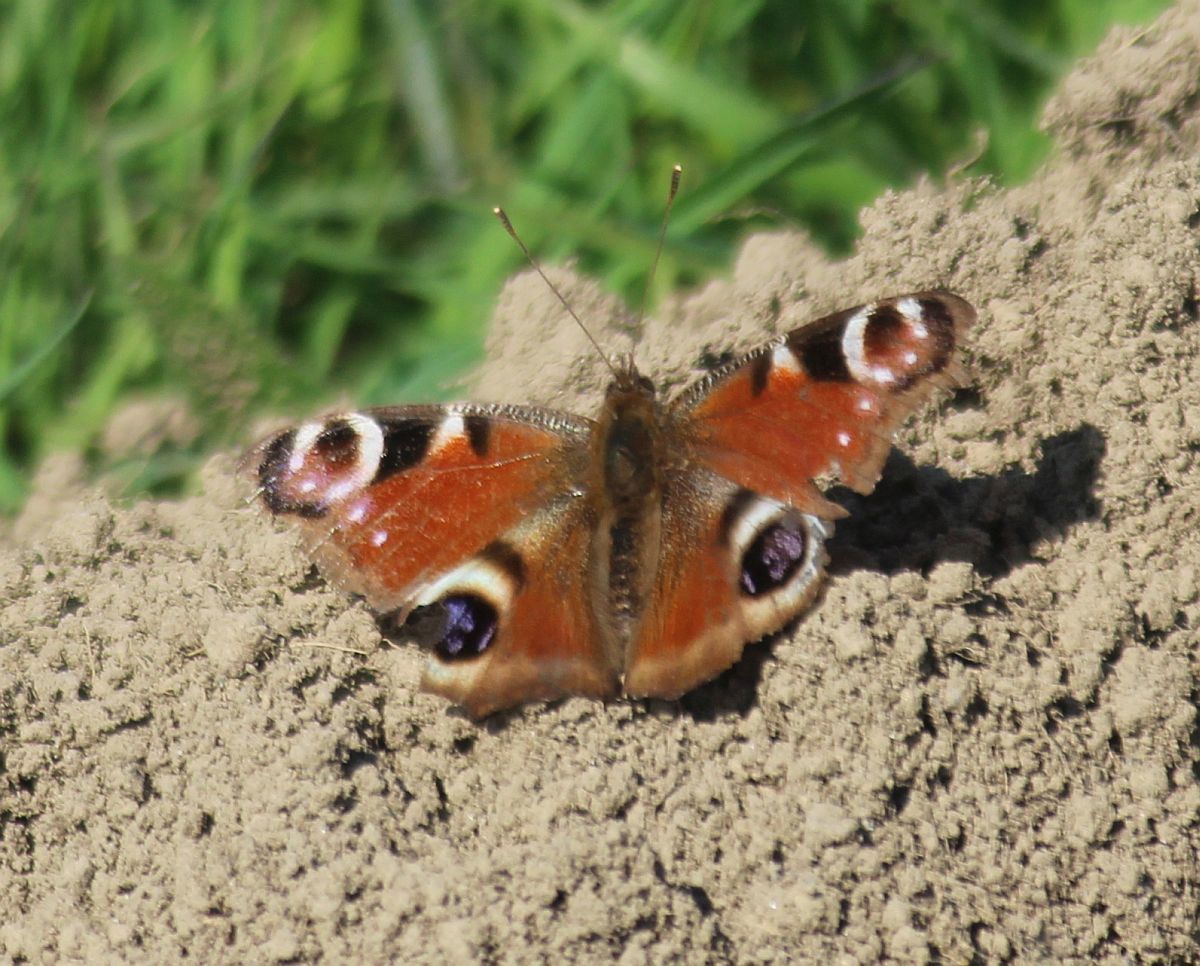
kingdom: Animalia
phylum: Arthropoda
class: Insecta
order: Lepidoptera
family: Nymphalidae
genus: Aglais
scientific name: Aglais io
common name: Peacock
